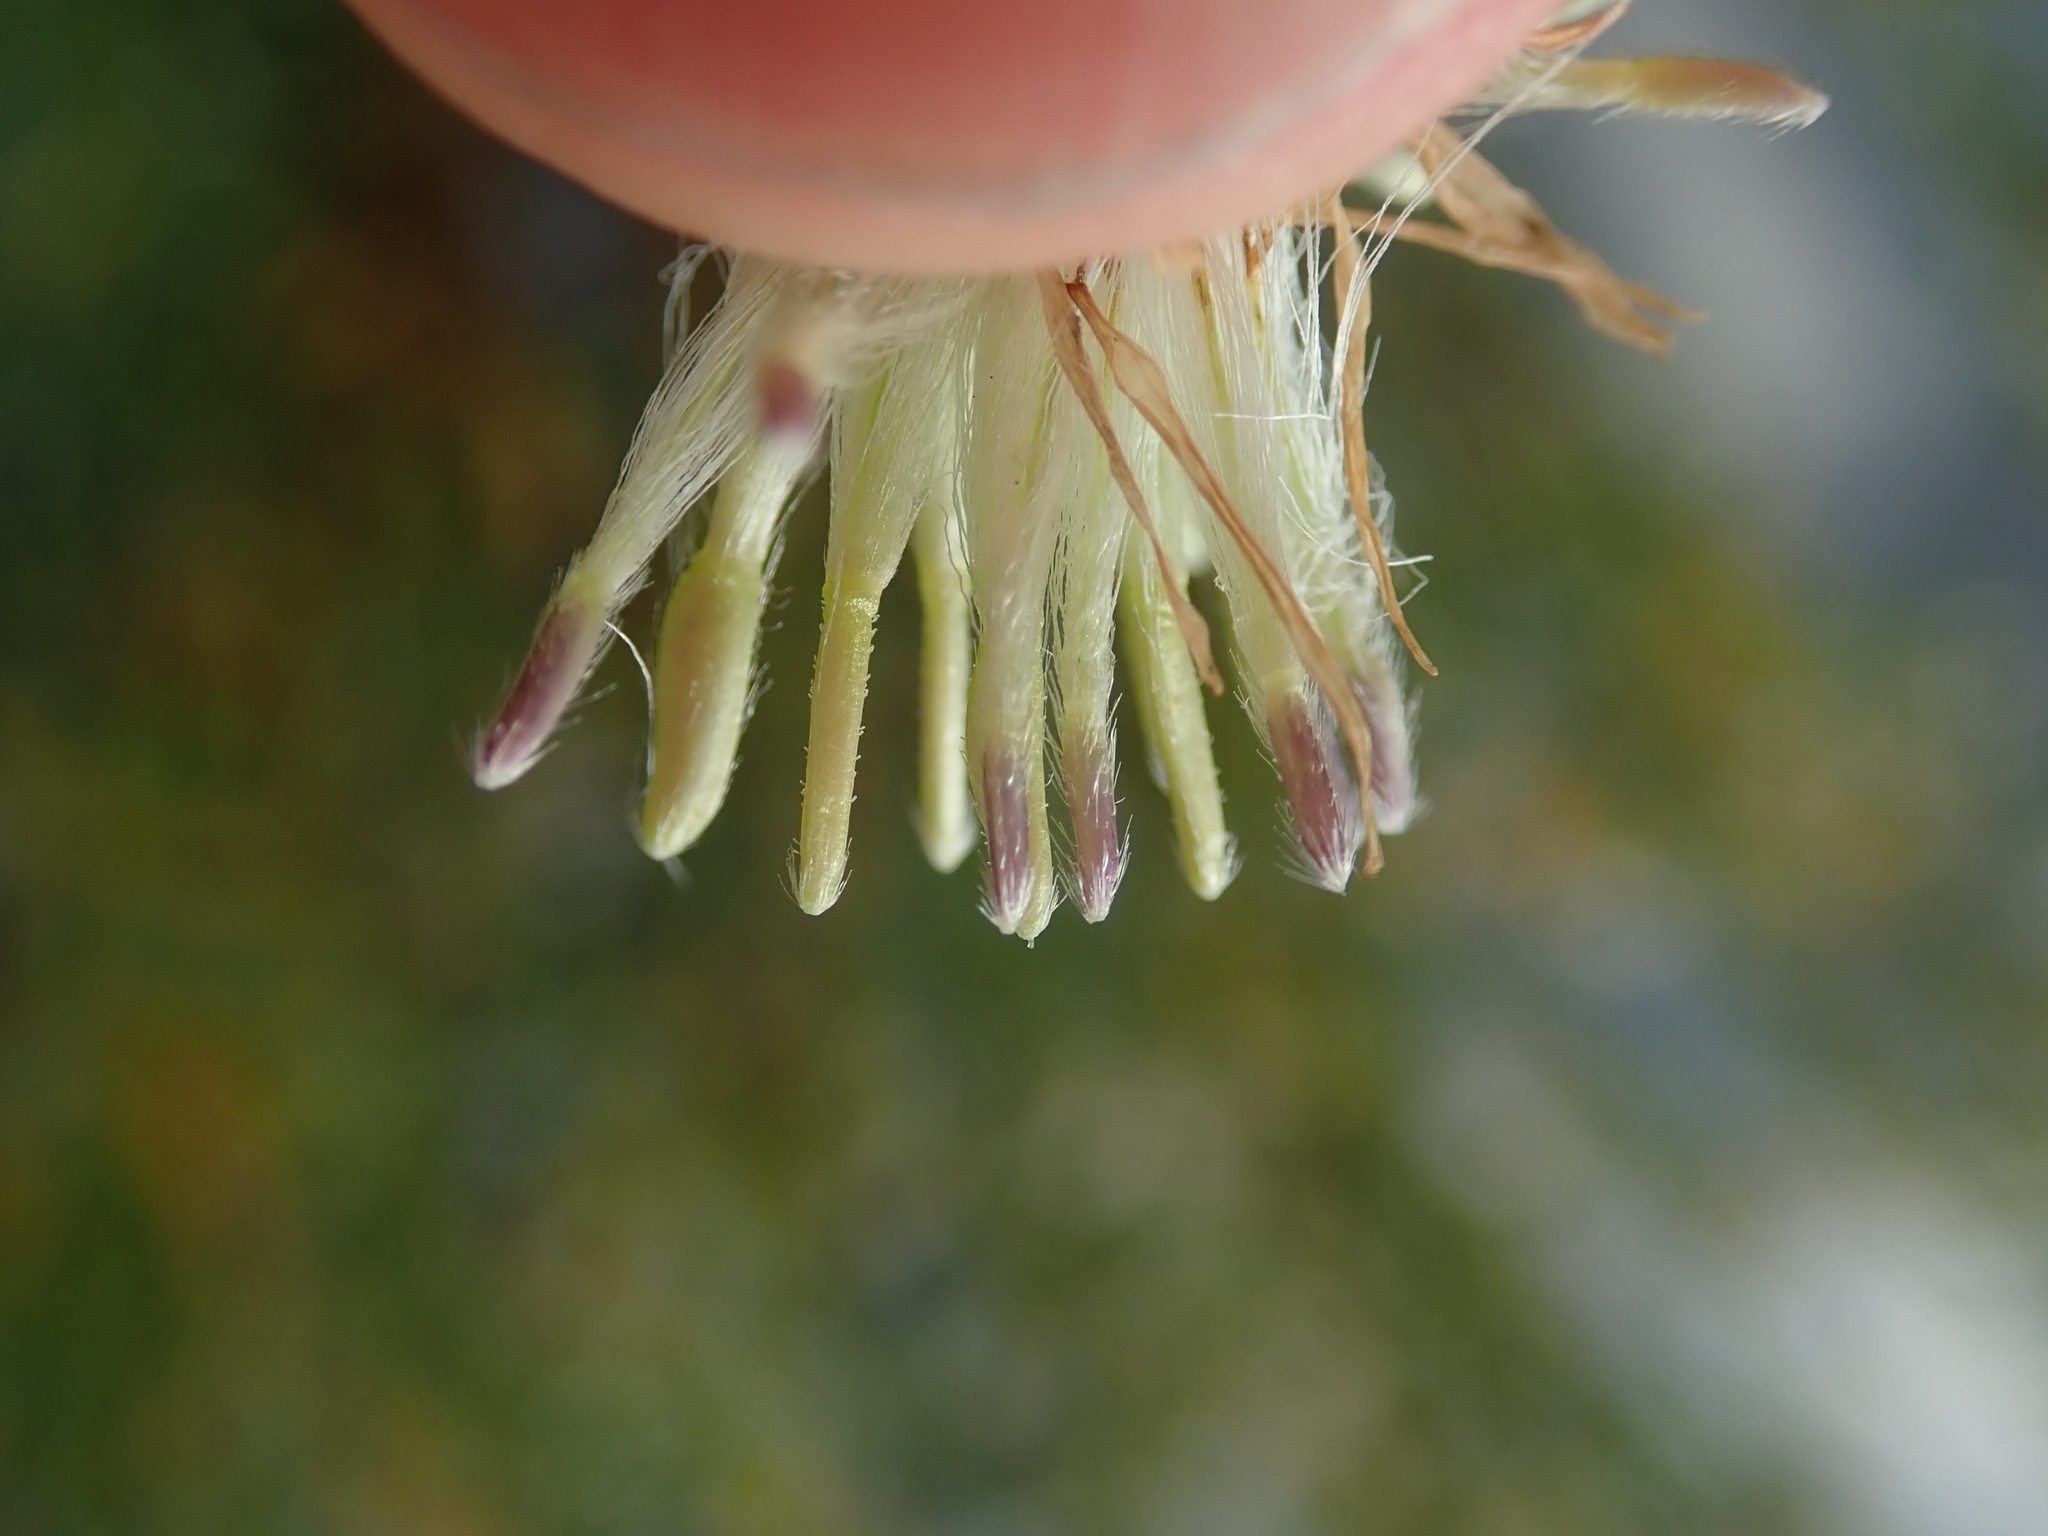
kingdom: Plantae
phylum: Tracheophyta
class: Magnoliopsida
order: Asterales
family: Asteraceae
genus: Tripolium
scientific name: Tripolium pannonicum
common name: Sea aster
